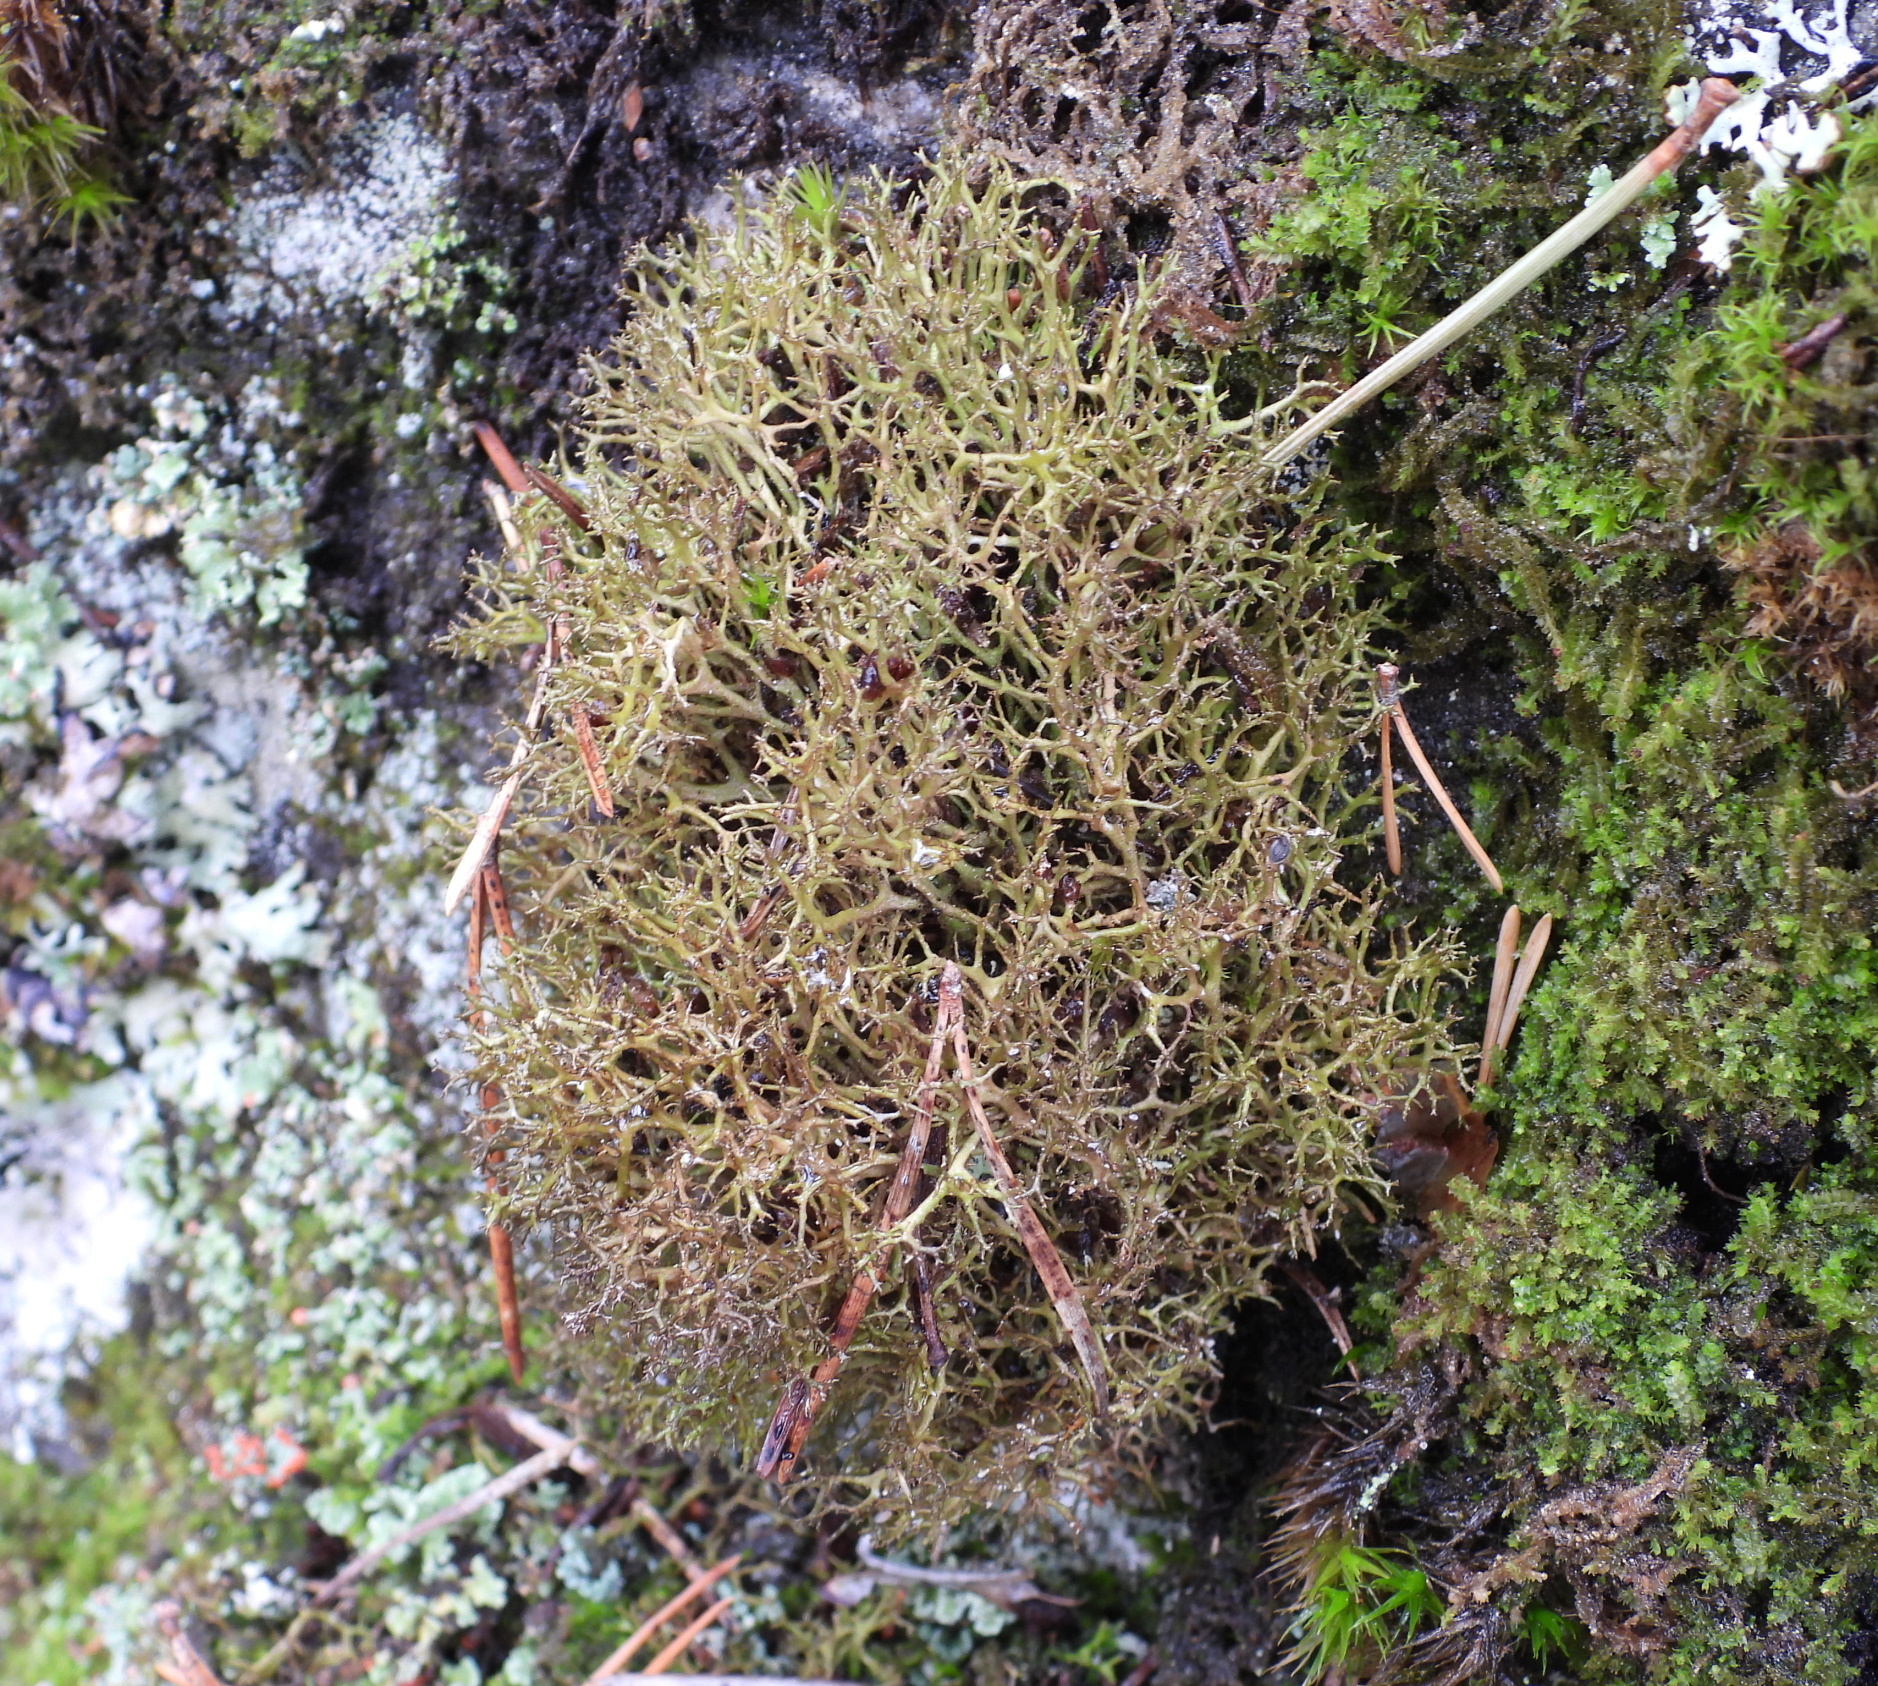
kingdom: Fungi
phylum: Ascomycota
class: Lecanoromycetes
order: Lecanorales
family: Parmeliaceae
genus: Cetraria
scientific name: Cetraria muricata
